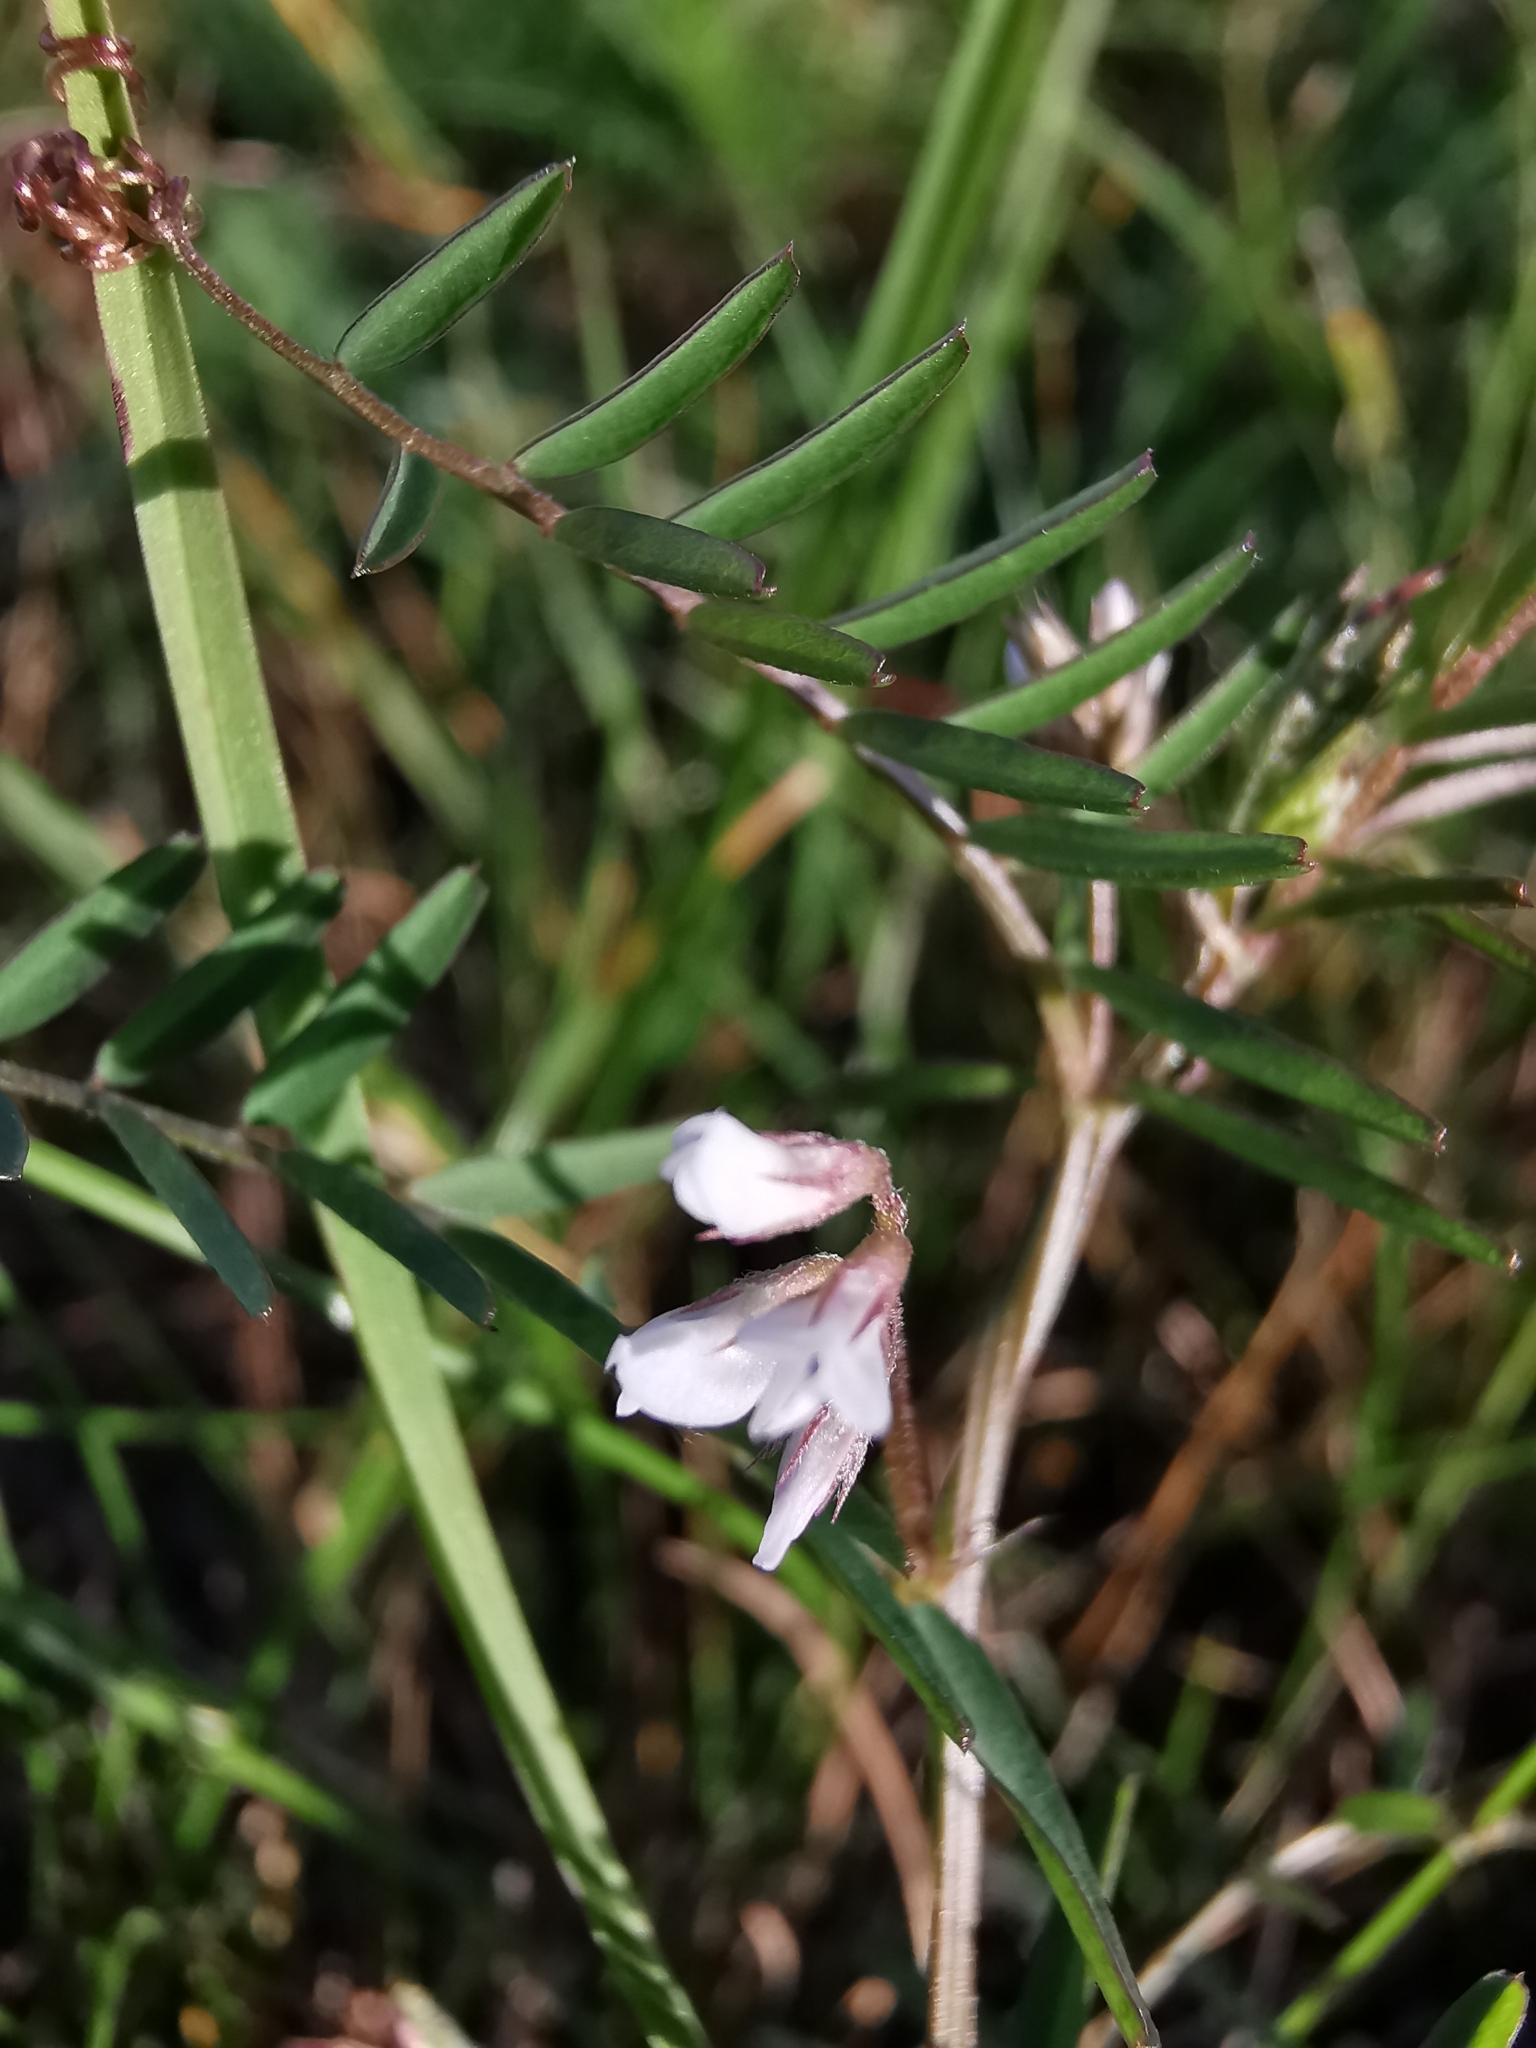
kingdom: Plantae
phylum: Tracheophyta
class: Magnoliopsida
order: Fabales
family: Fabaceae
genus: Vicia
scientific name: Vicia hirsuta
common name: Tiny vetch
